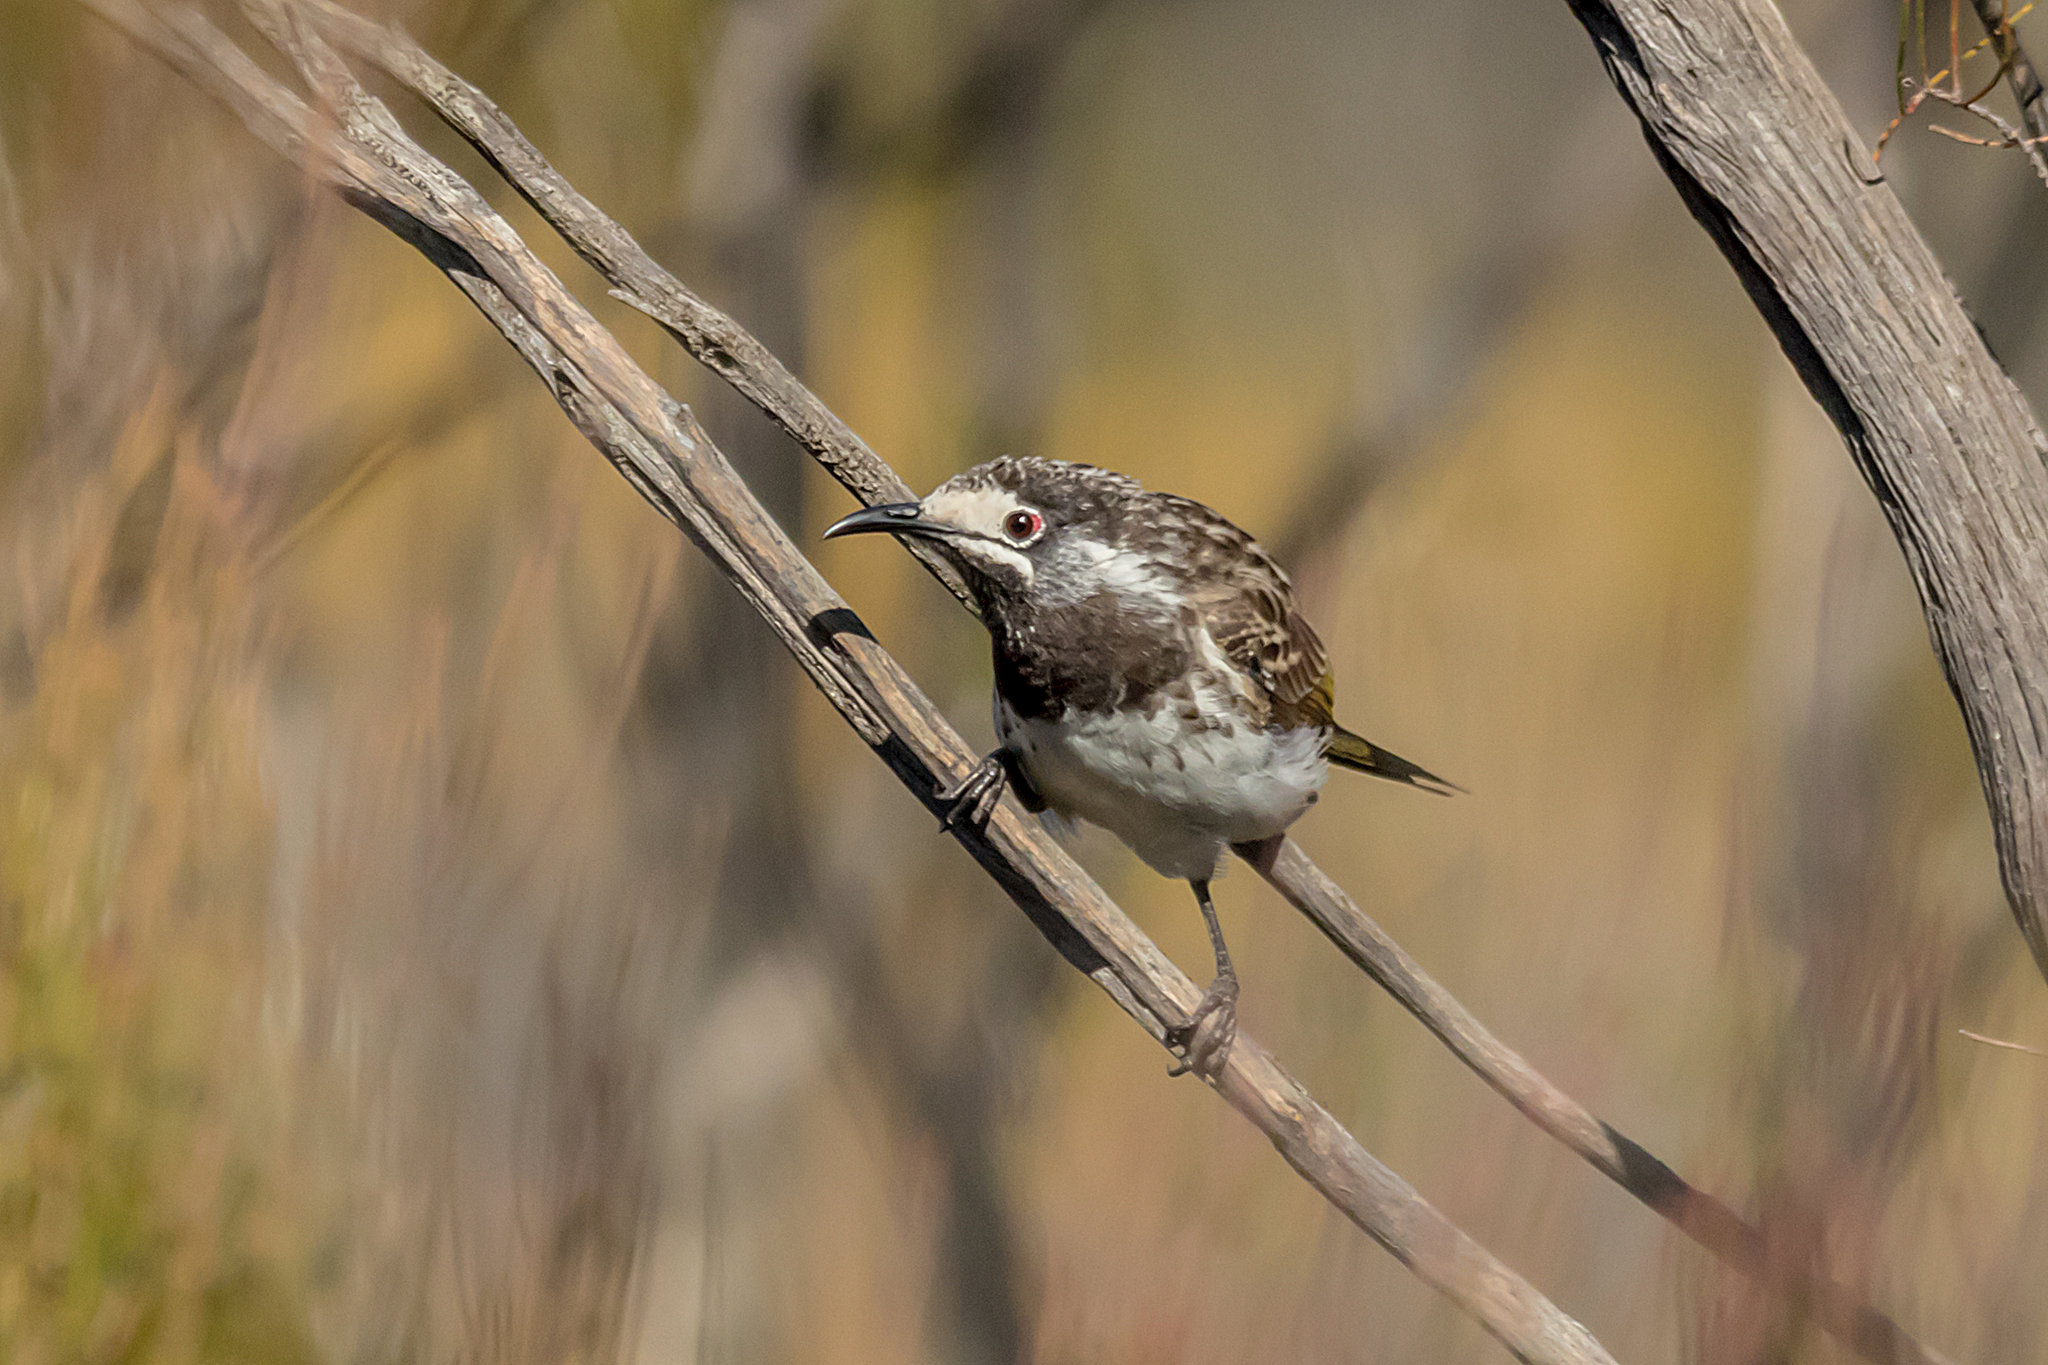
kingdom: Animalia
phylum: Chordata
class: Aves
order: Passeriformes
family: Meliphagidae
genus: Purnella
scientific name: Purnella albifrons
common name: White-fronted honeyeater
